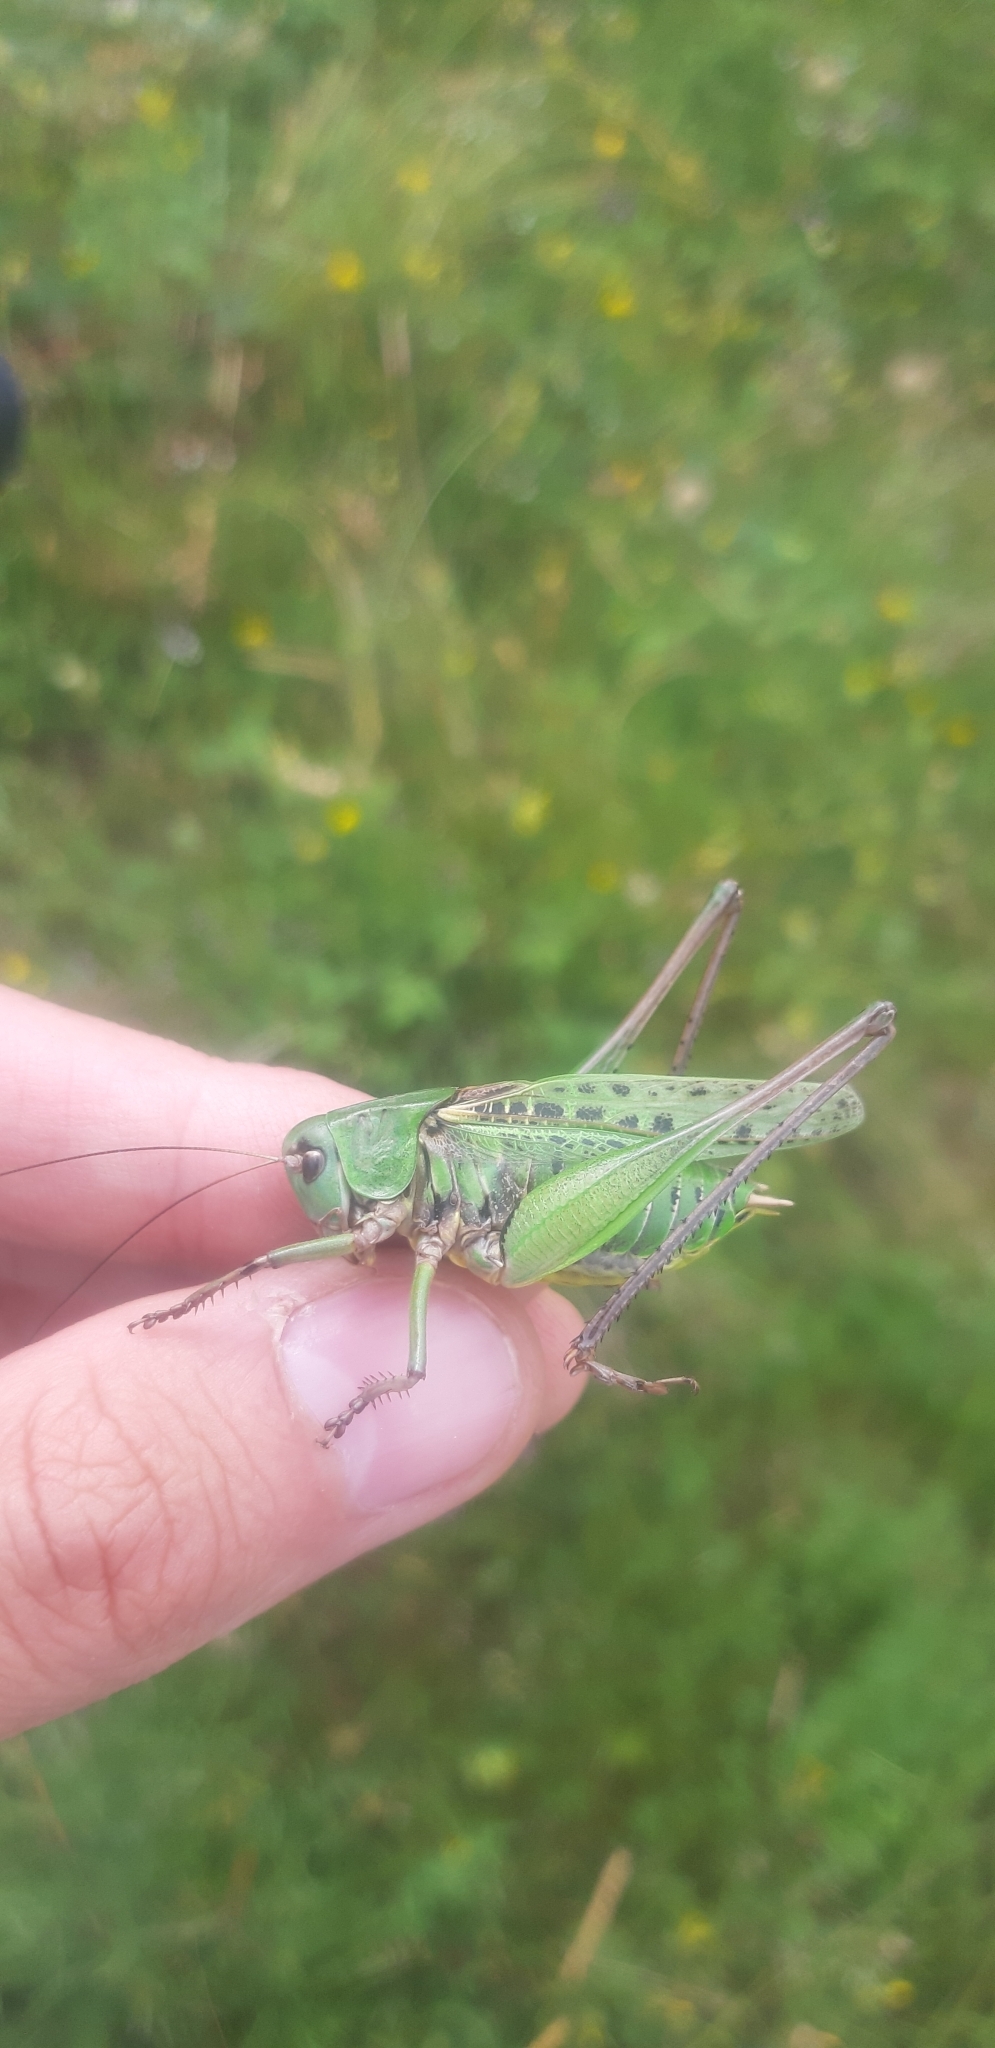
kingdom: Animalia
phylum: Arthropoda
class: Insecta
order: Orthoptera
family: Tettigoniidae
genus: Decticus
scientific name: Decticus verrucivorus
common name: Wart-biter
